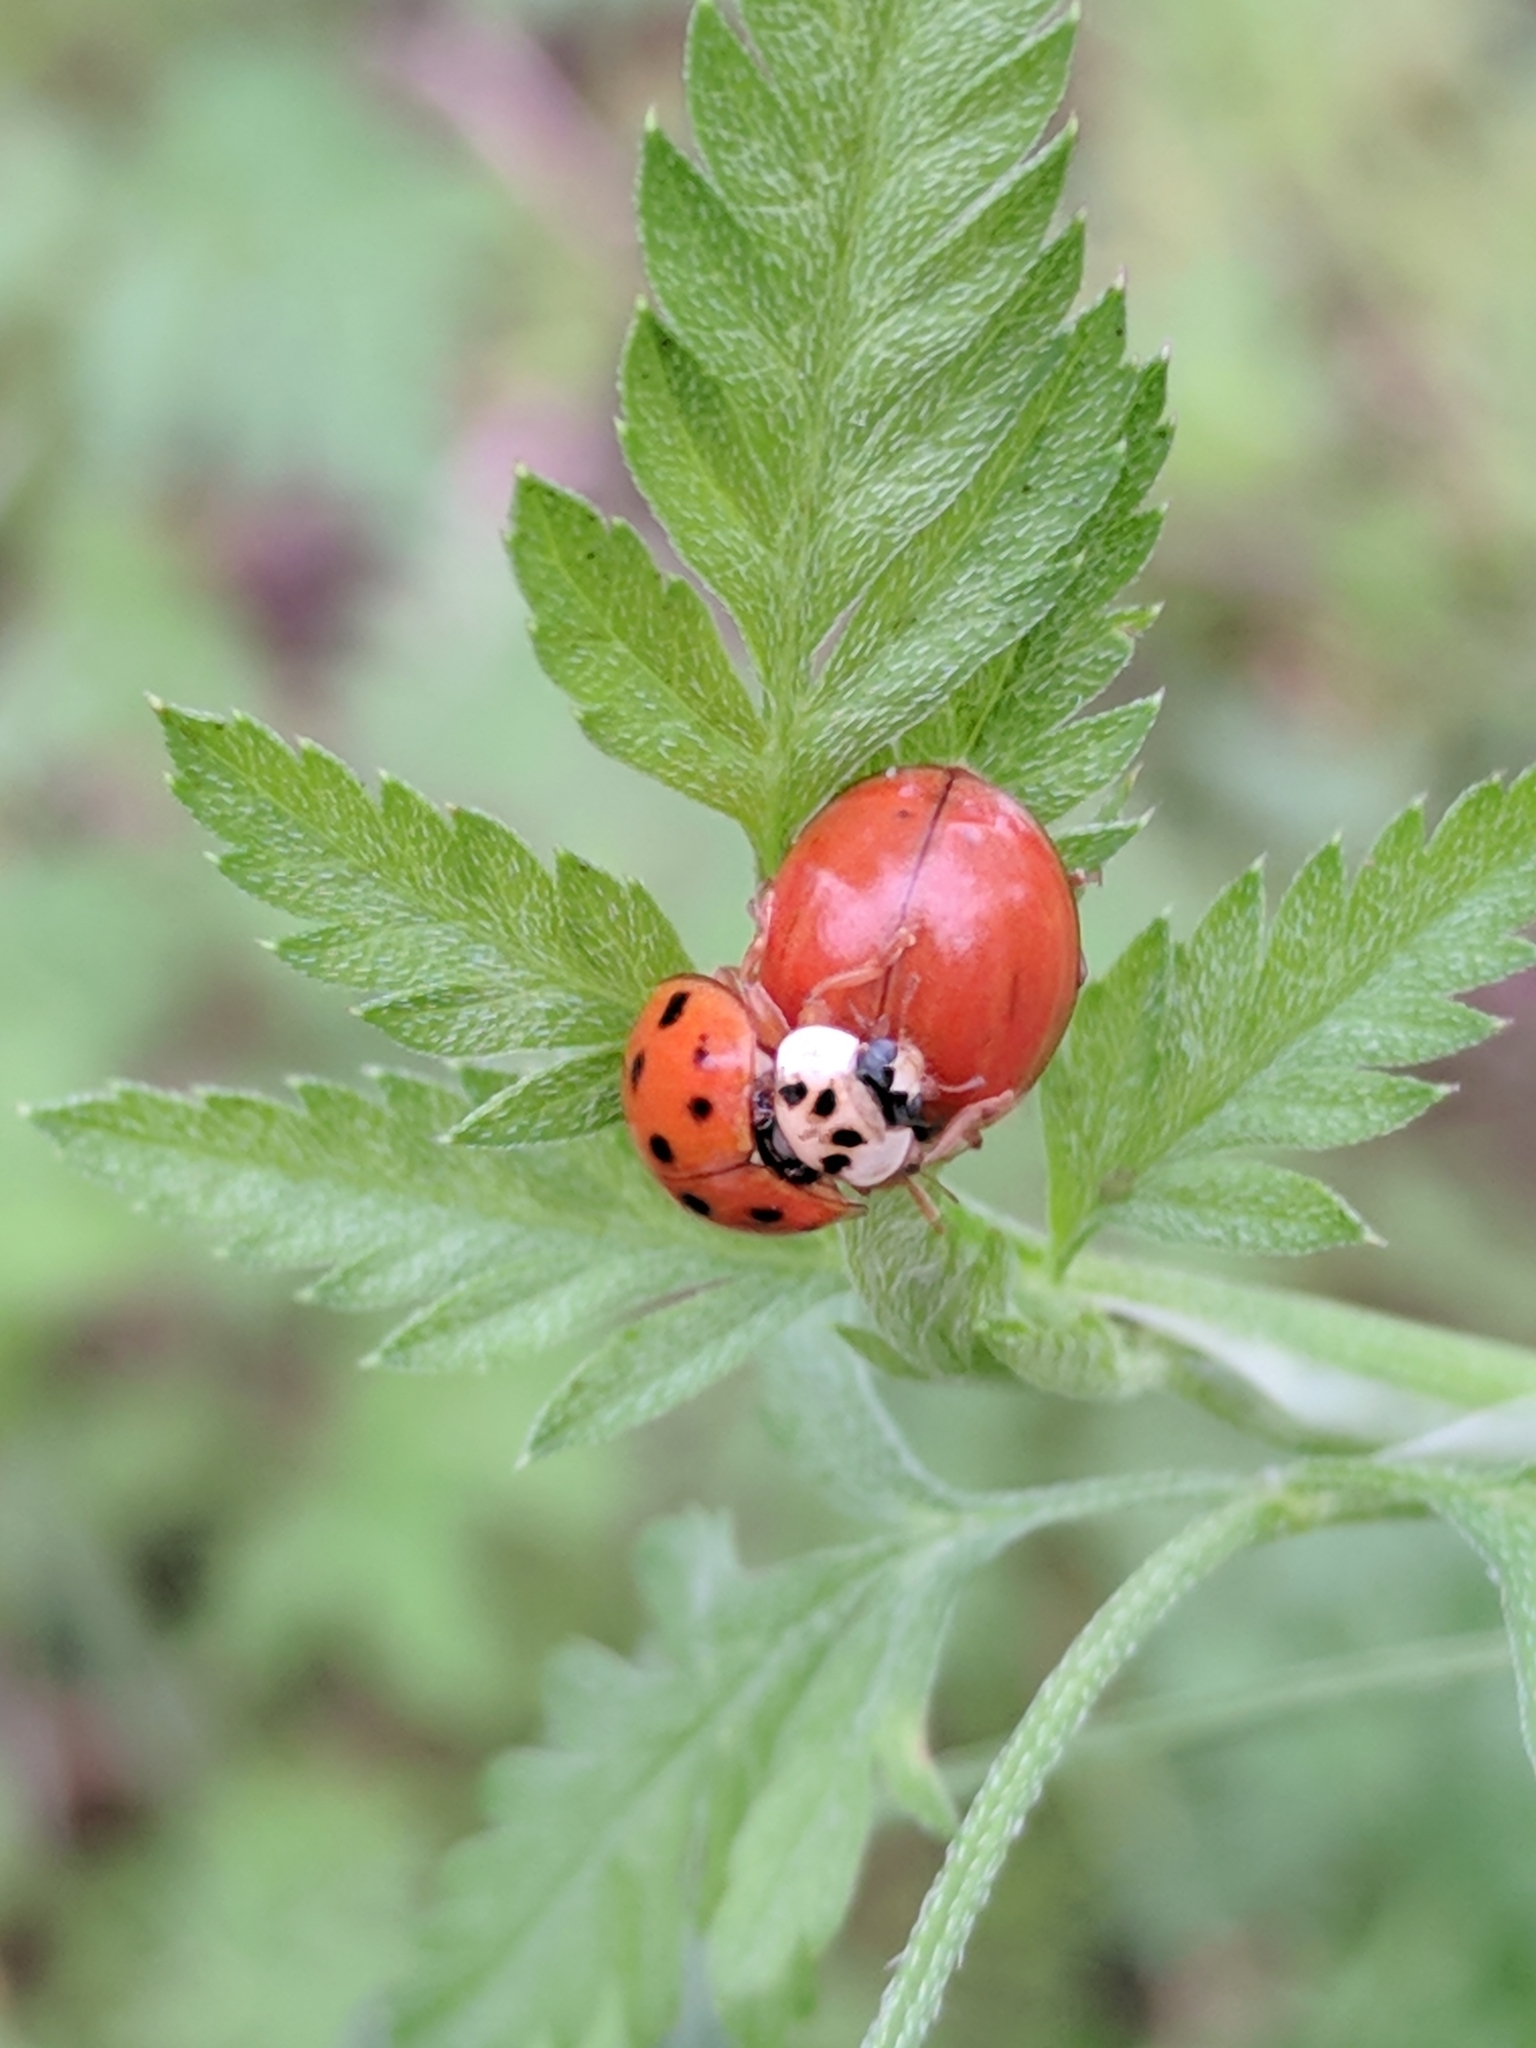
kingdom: Animalia
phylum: Arthropoda
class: Insecta
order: Coleoptera
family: Coccinellidae
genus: Harmonia
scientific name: Harmonia axyridis
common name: Harlequin ladybird
